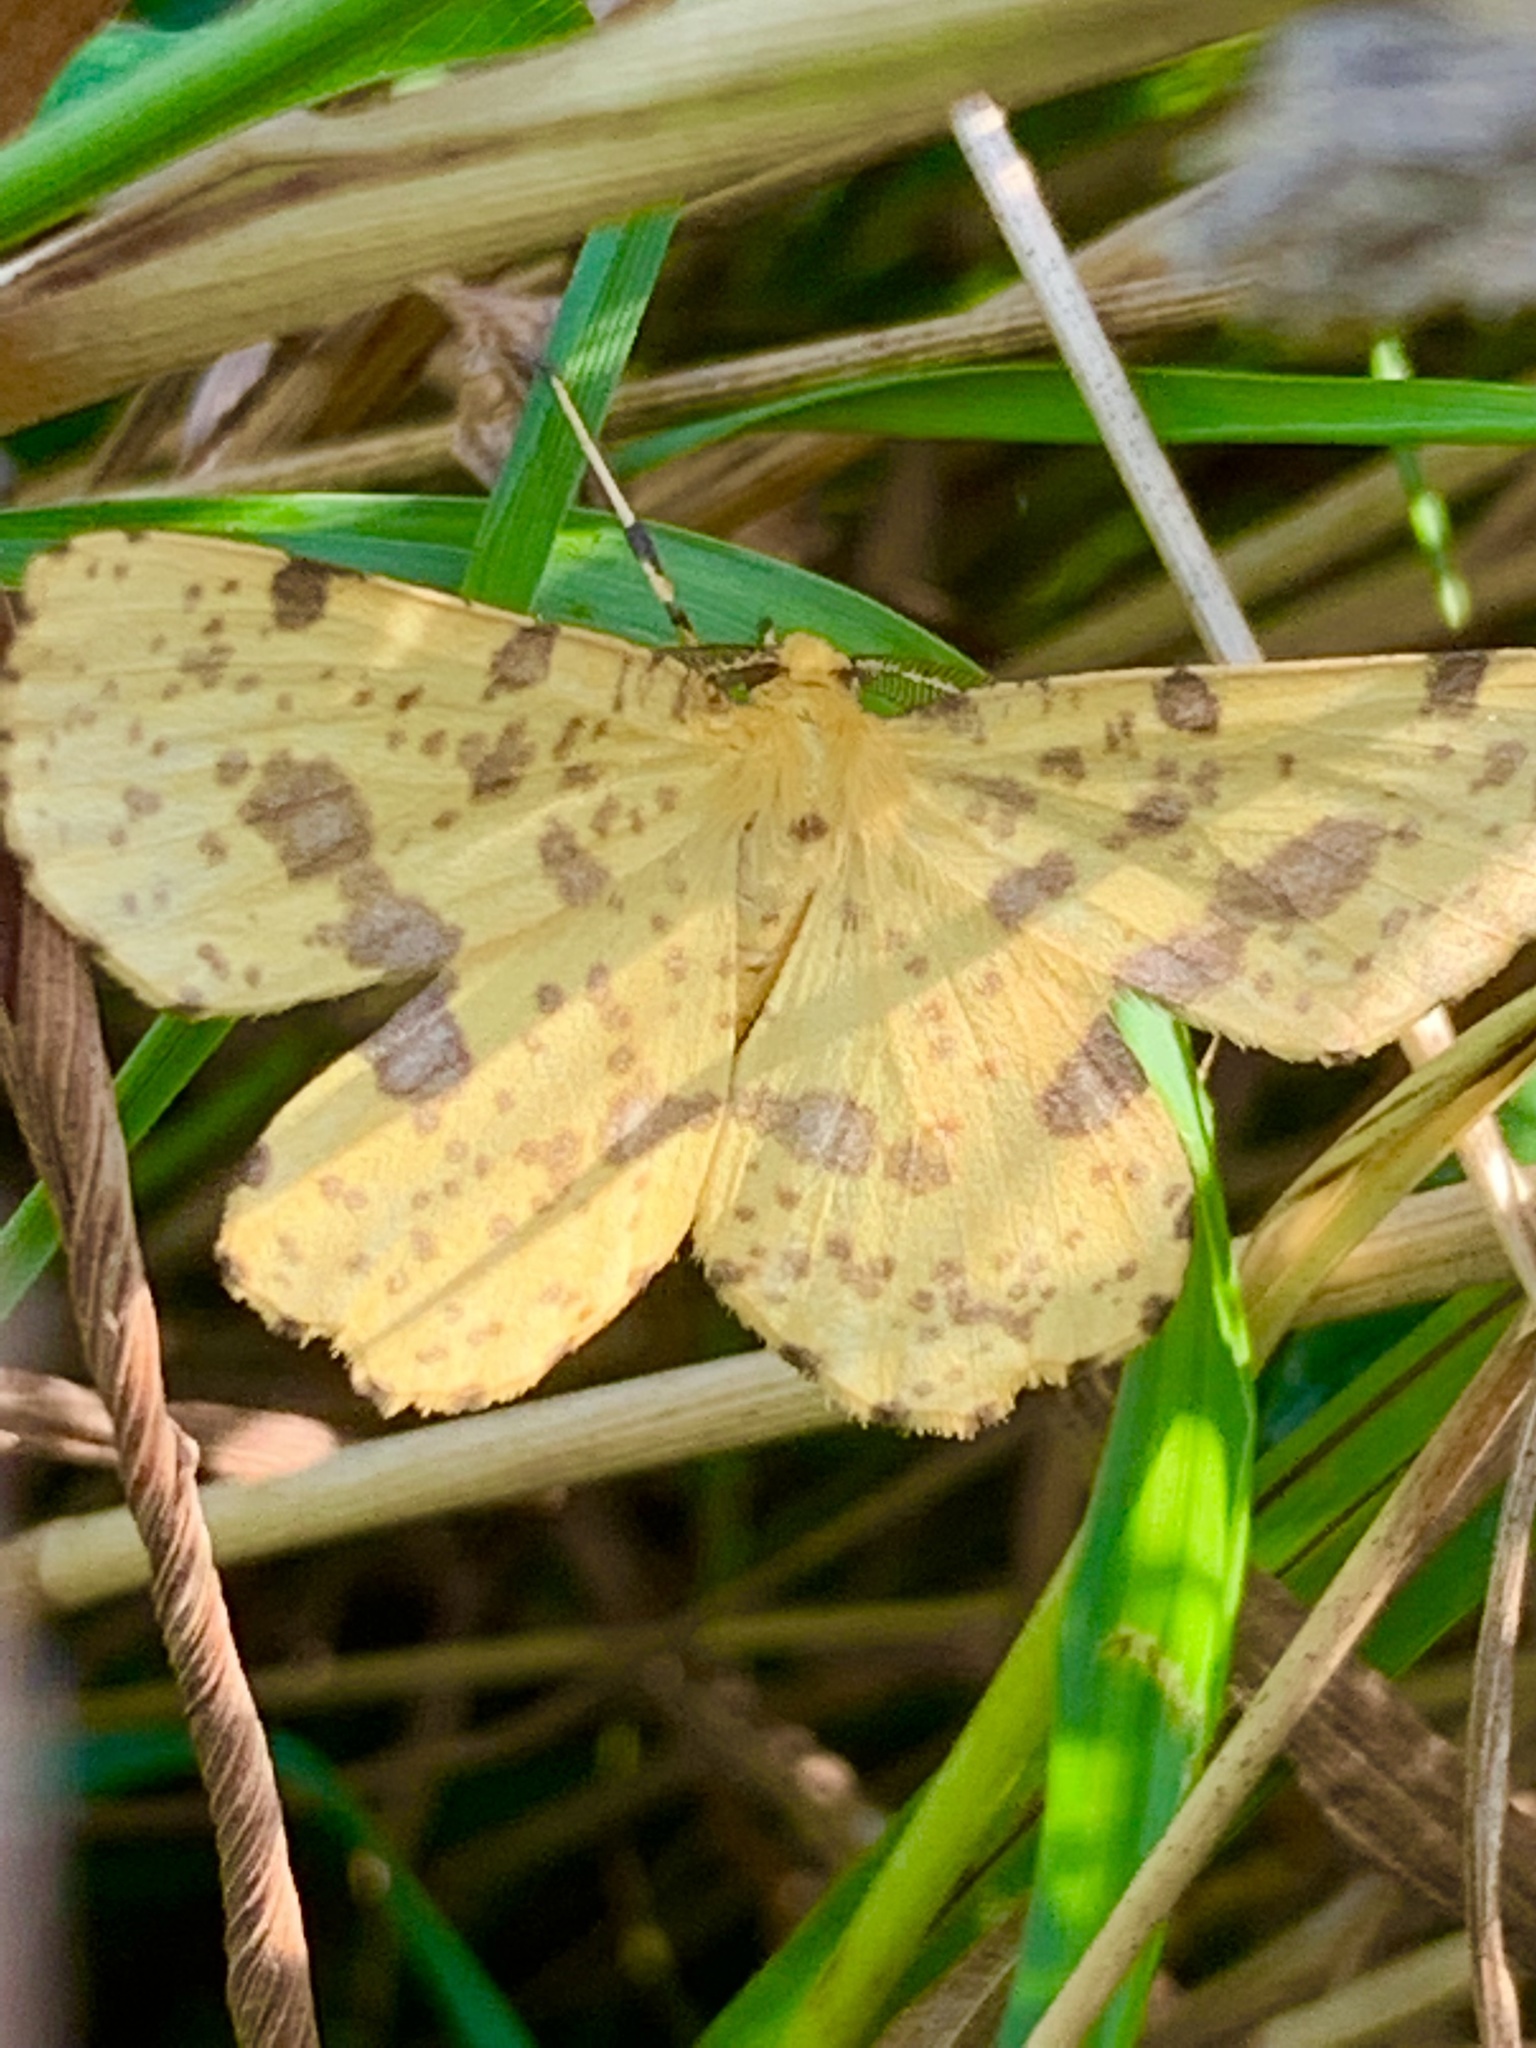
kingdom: Animalia
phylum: Arthropoda
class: Insecta
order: Lepidoptera
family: Geometridae
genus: Xanthotype
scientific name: Xanthotype
